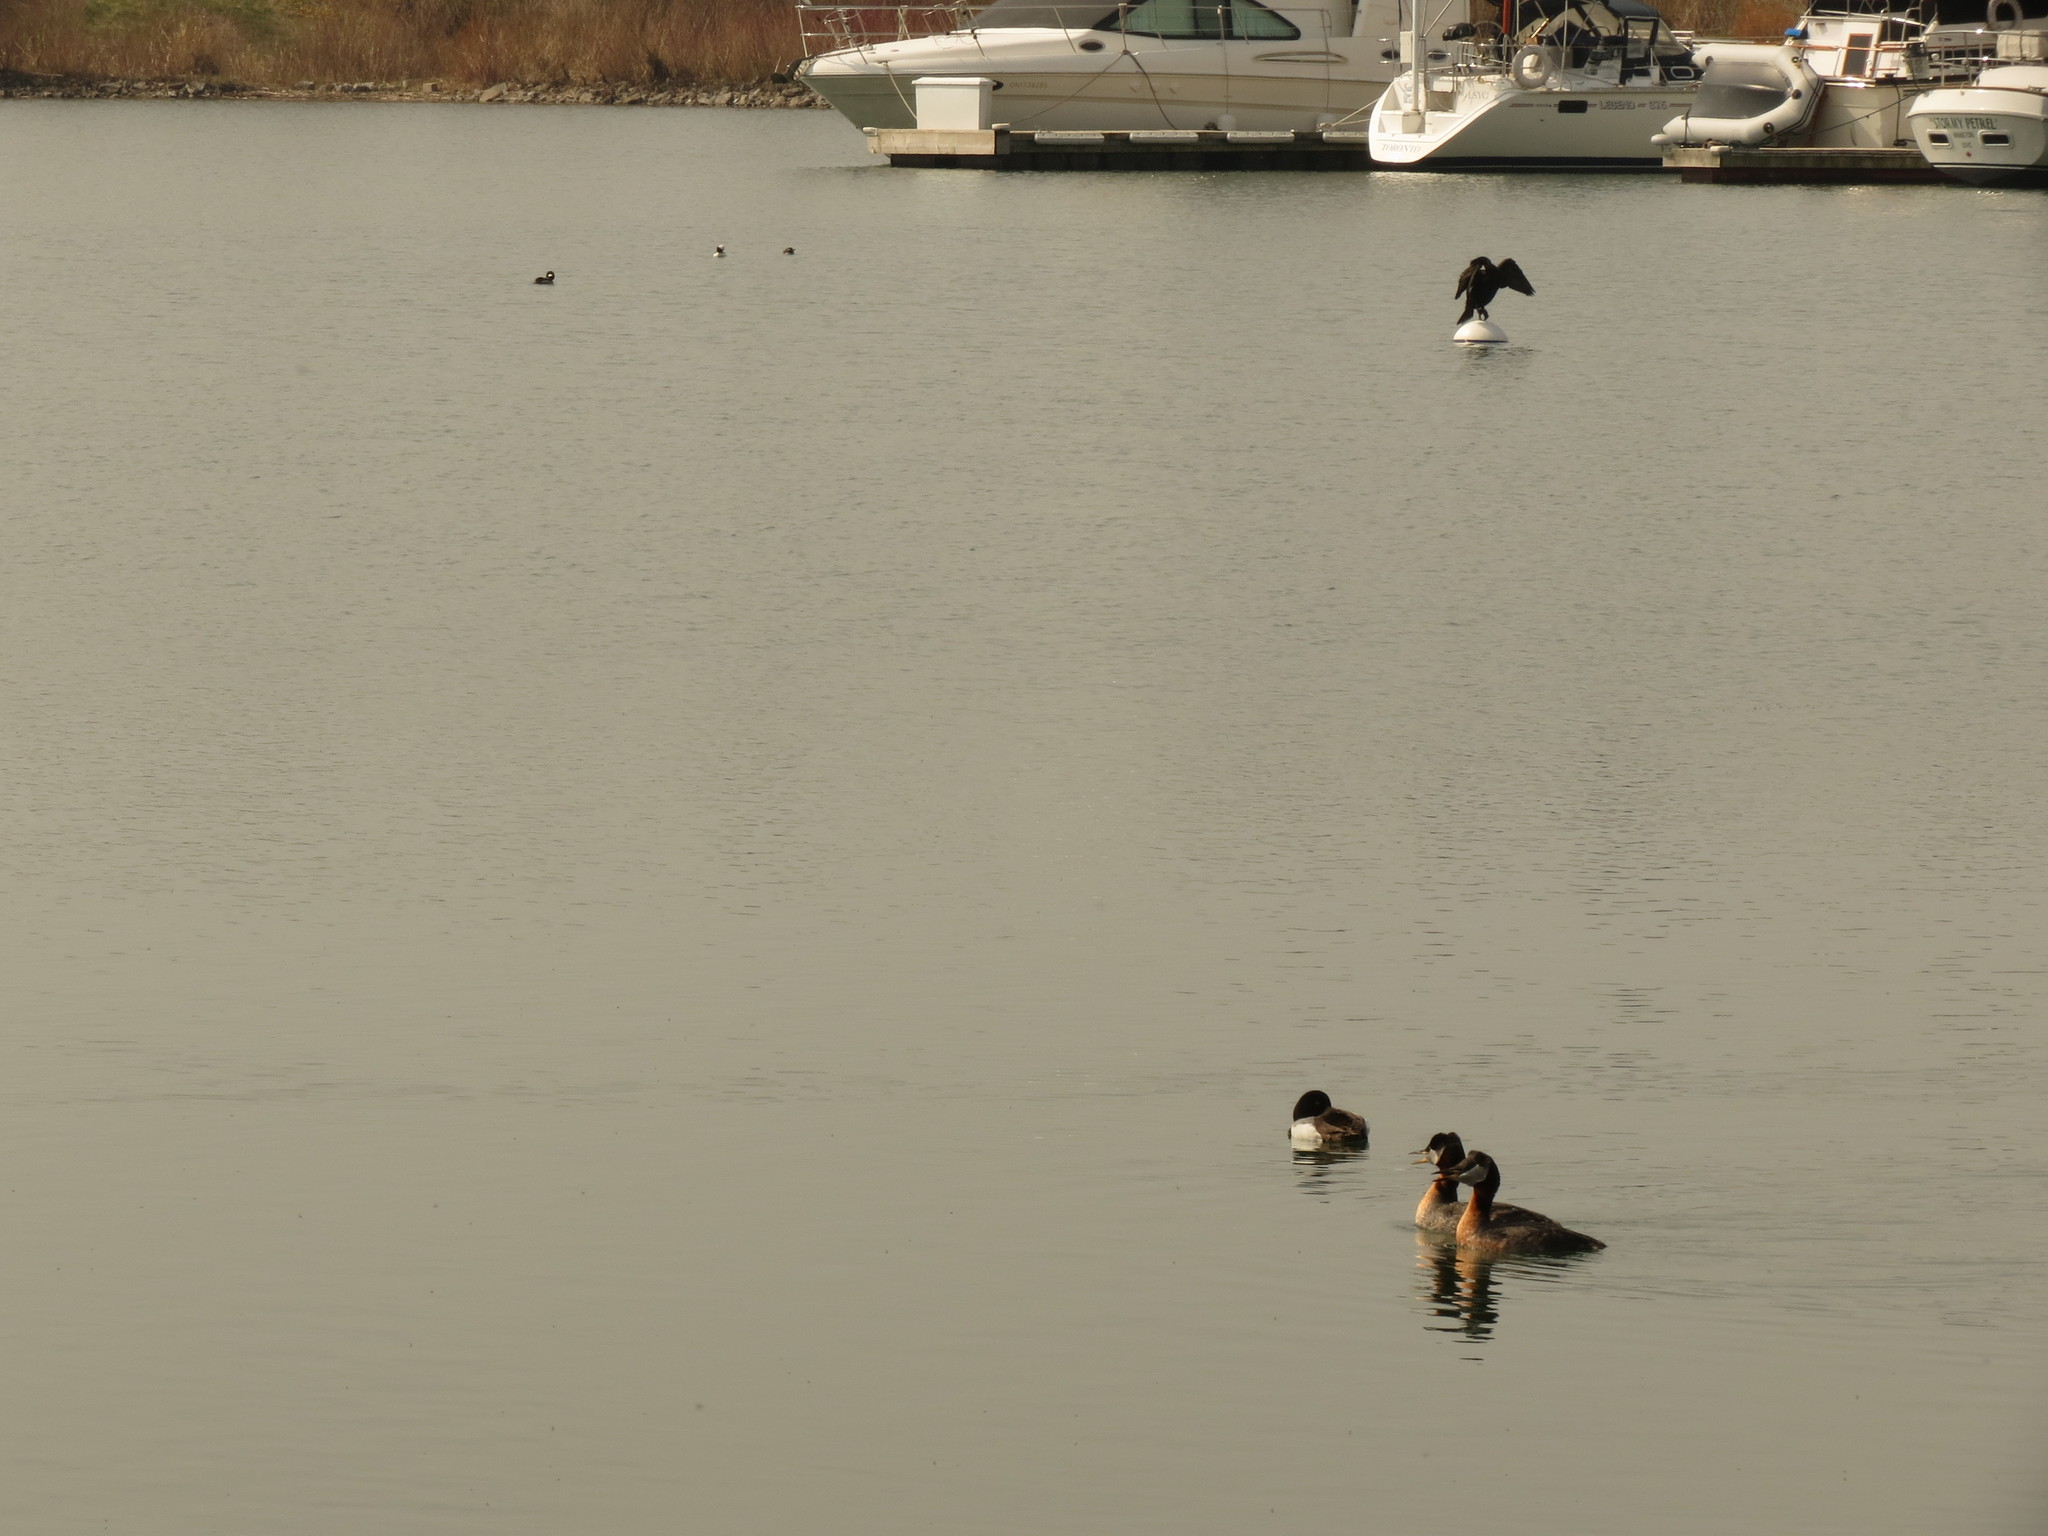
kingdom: Animalia
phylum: Chordata
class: Aves
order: Podicipediformes
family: Podicipedidae
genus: Podiceps
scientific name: Podiceps grisegena
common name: Red-necked grebe
